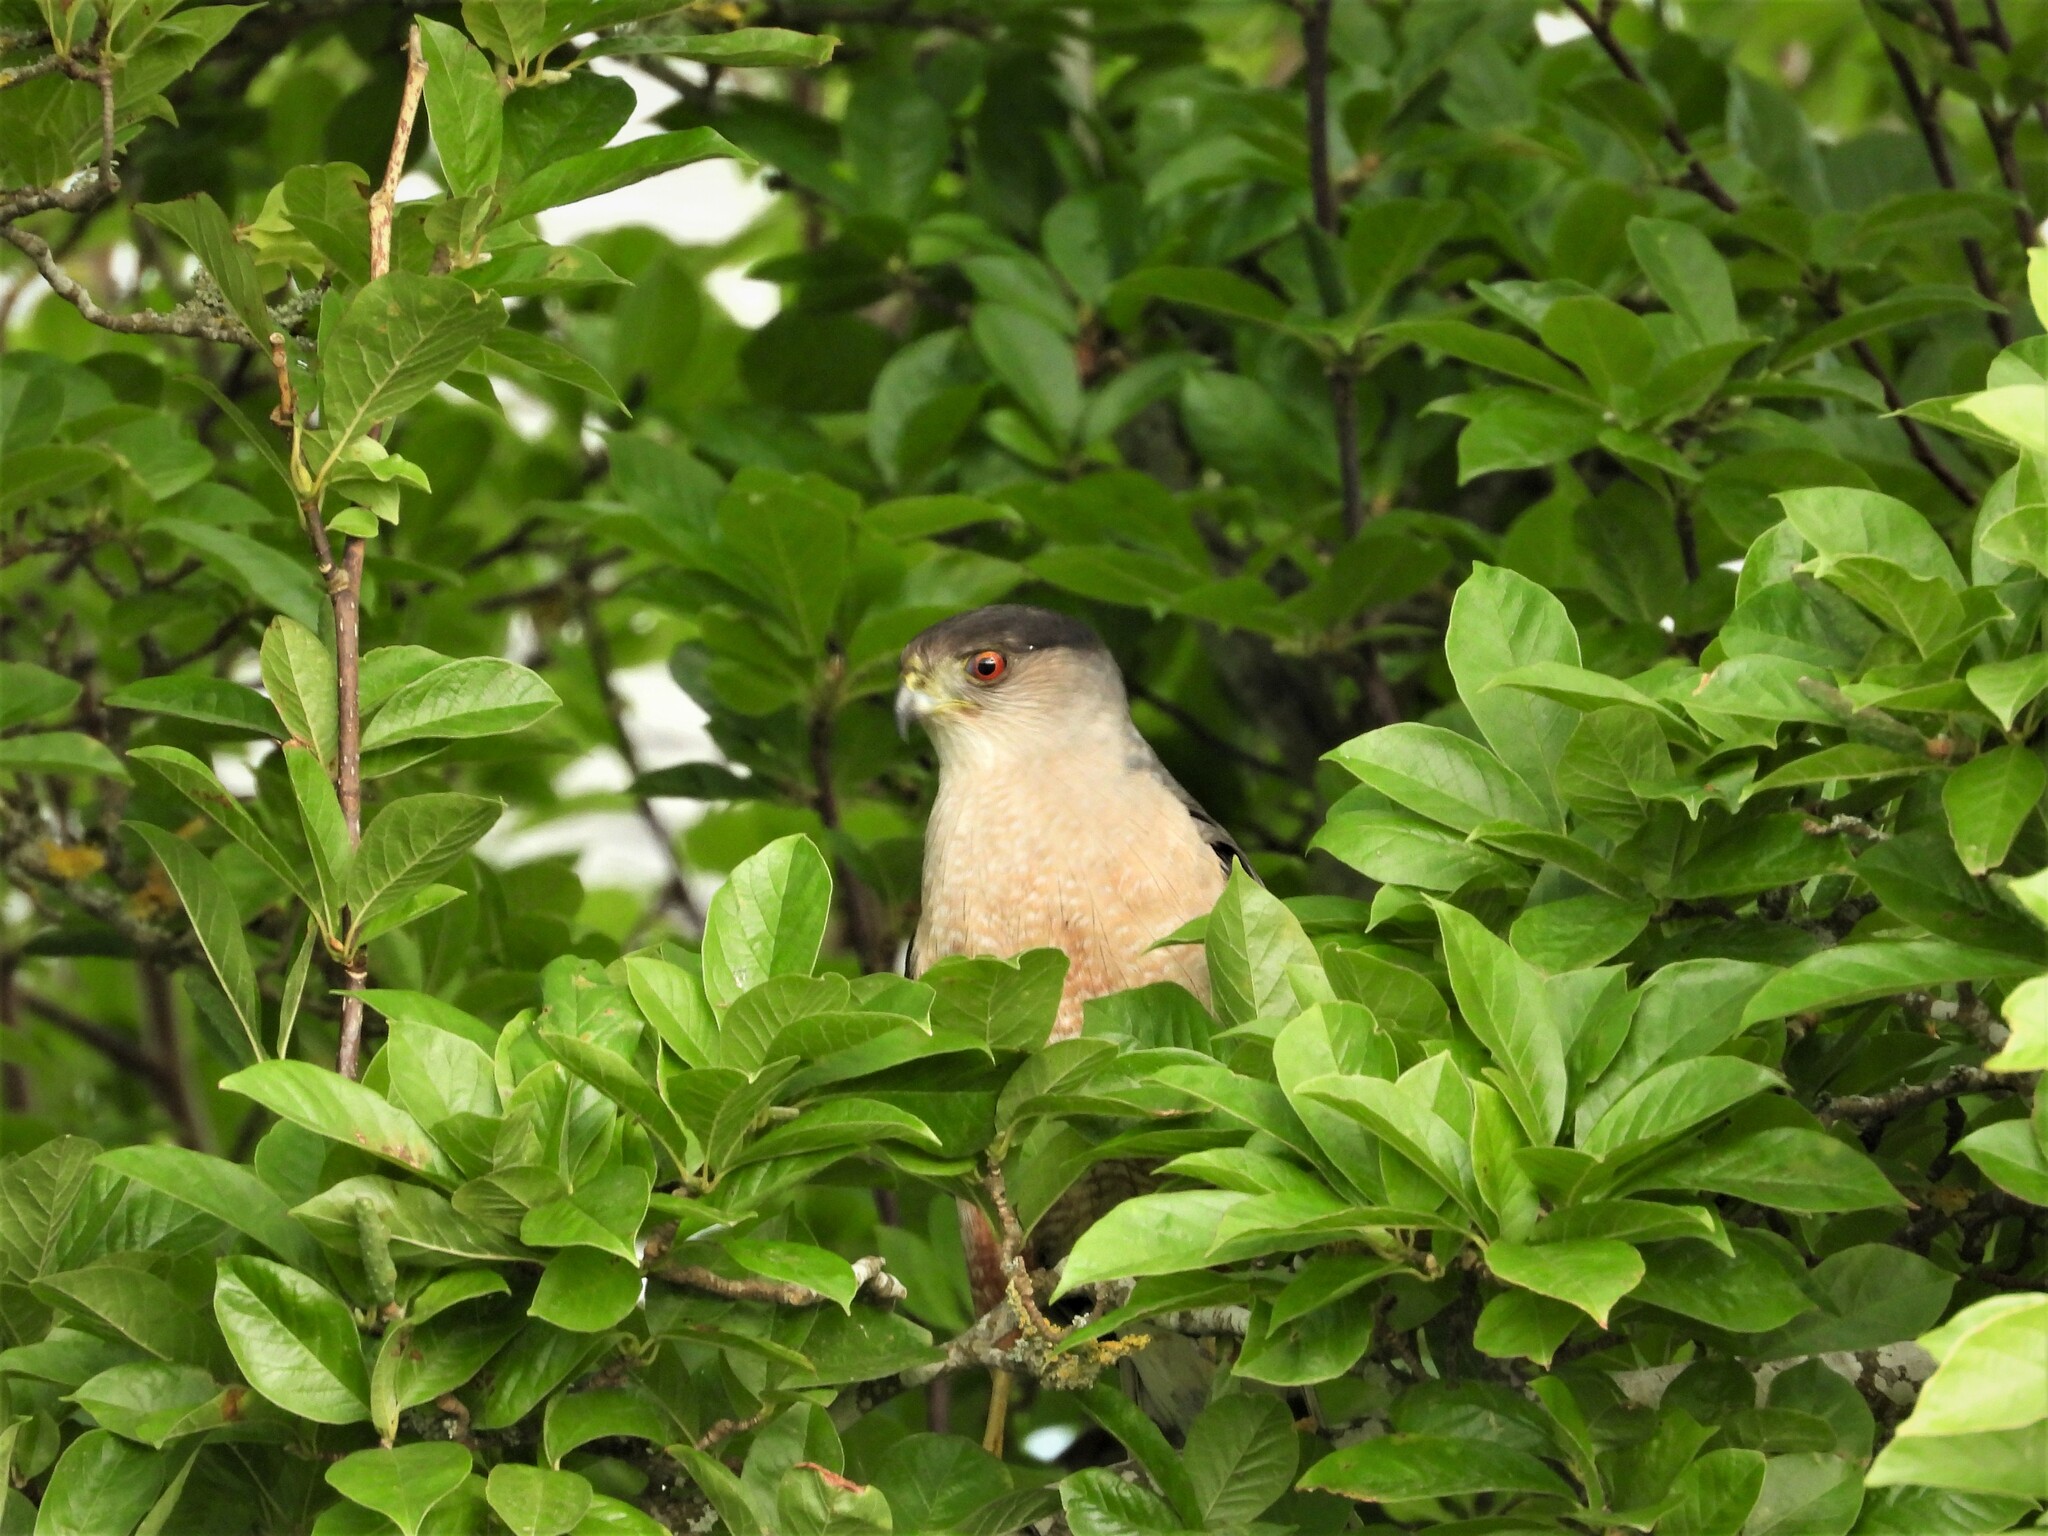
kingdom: Animalia
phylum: Chordata
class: Aves
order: Accipitriformes
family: Accipitridae
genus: Accipiter
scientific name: Accipiter cooperii
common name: Cooper's hawk
